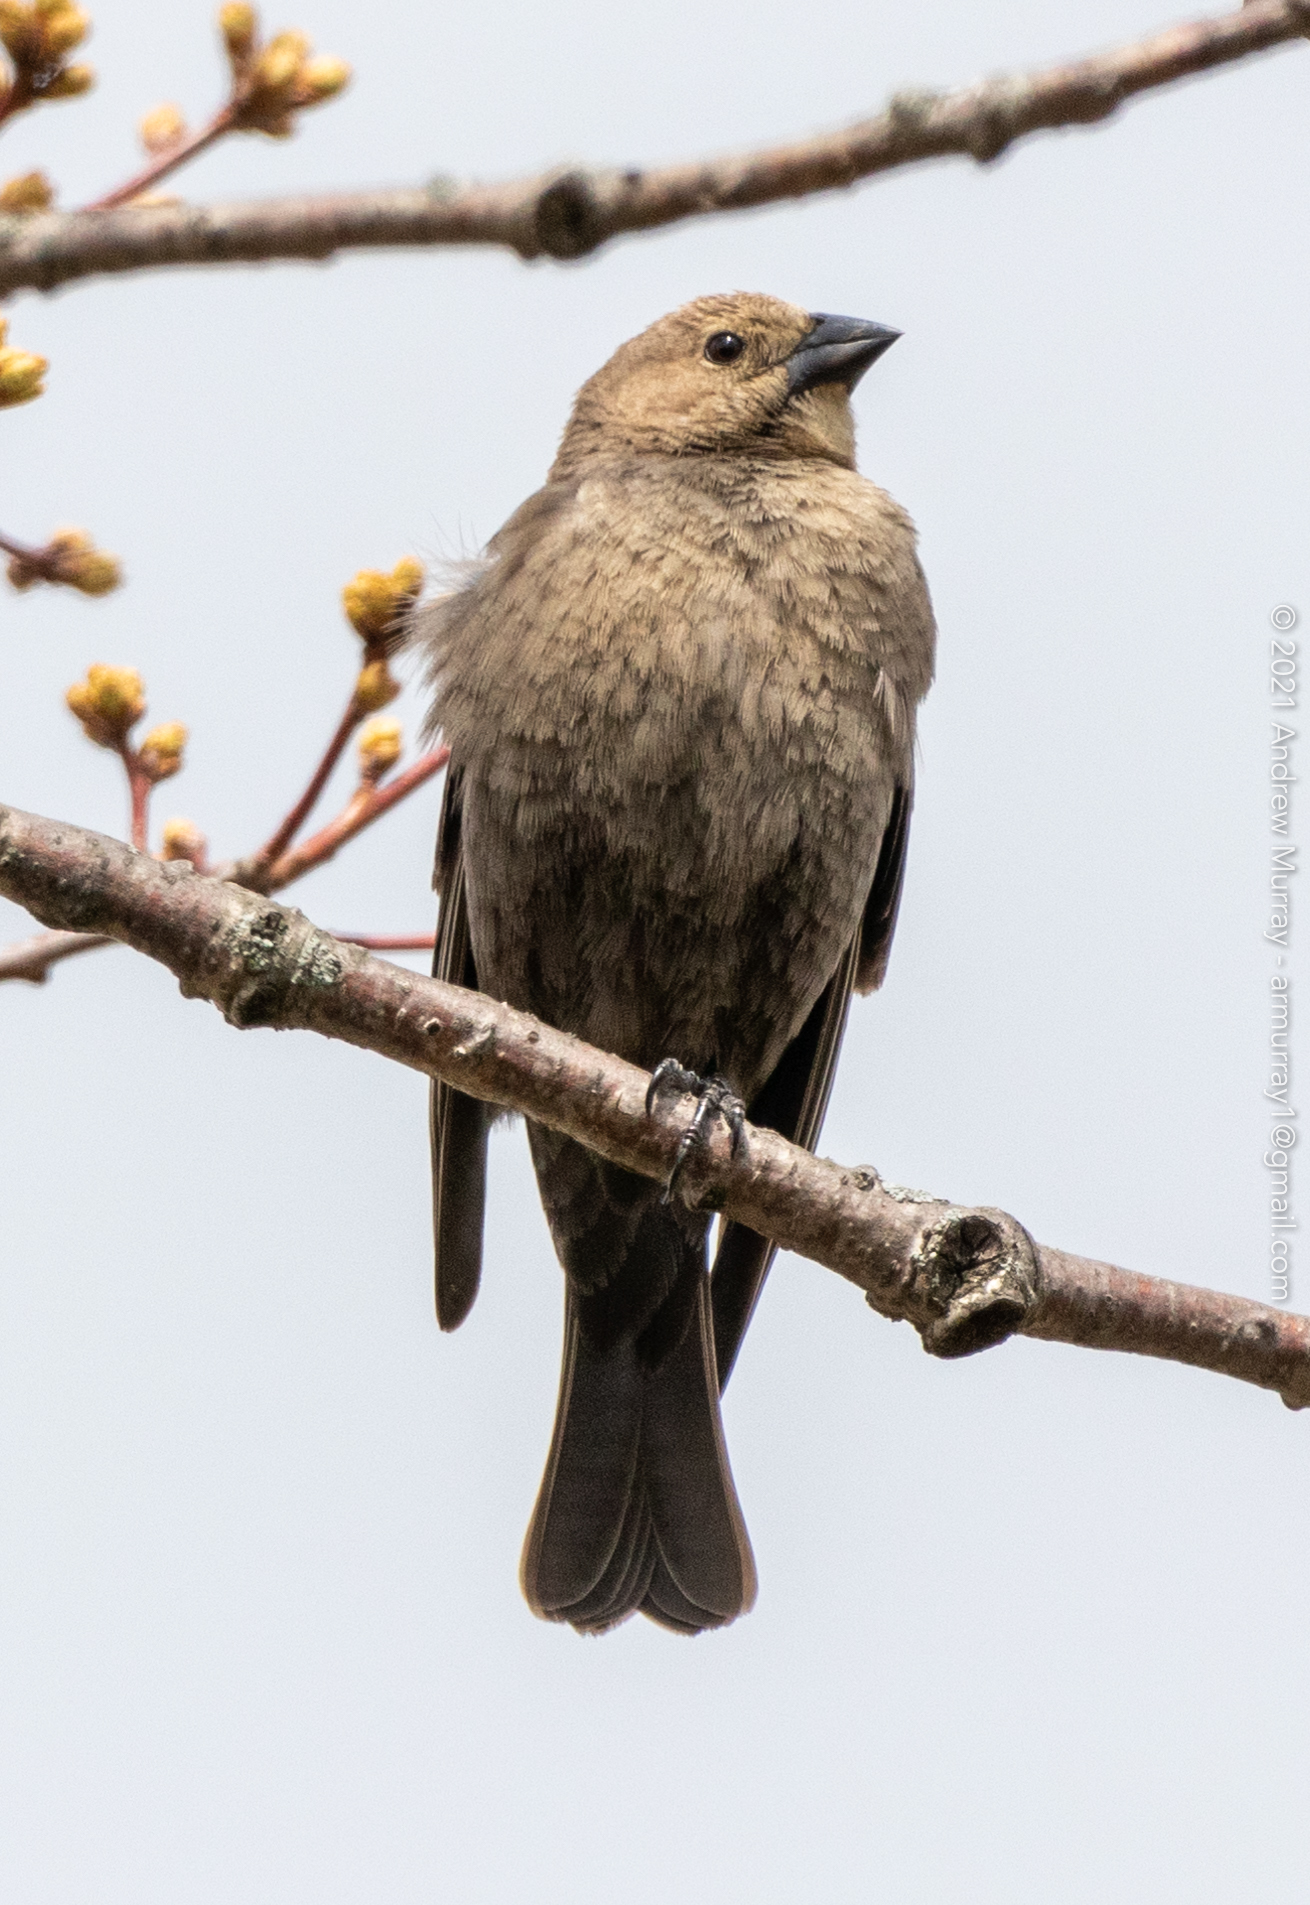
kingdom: Animalia
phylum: Chordata
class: Aves
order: Passeriformes
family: Icteridae
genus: Molothrus
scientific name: Molothrus ater
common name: Brown-headed cowbird
